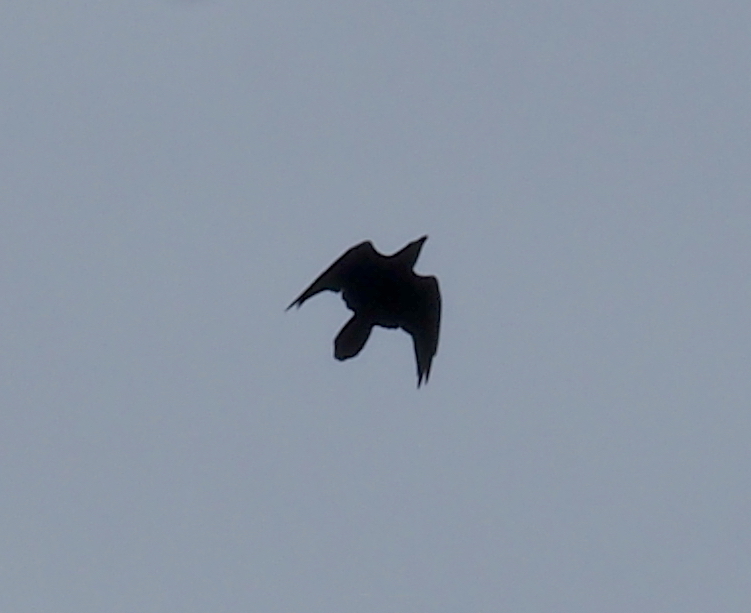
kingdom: Animalia
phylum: Chordata
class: Aves
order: Passeriformes
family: Corvidae
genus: Corvus
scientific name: Corvus corax
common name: Common raven
